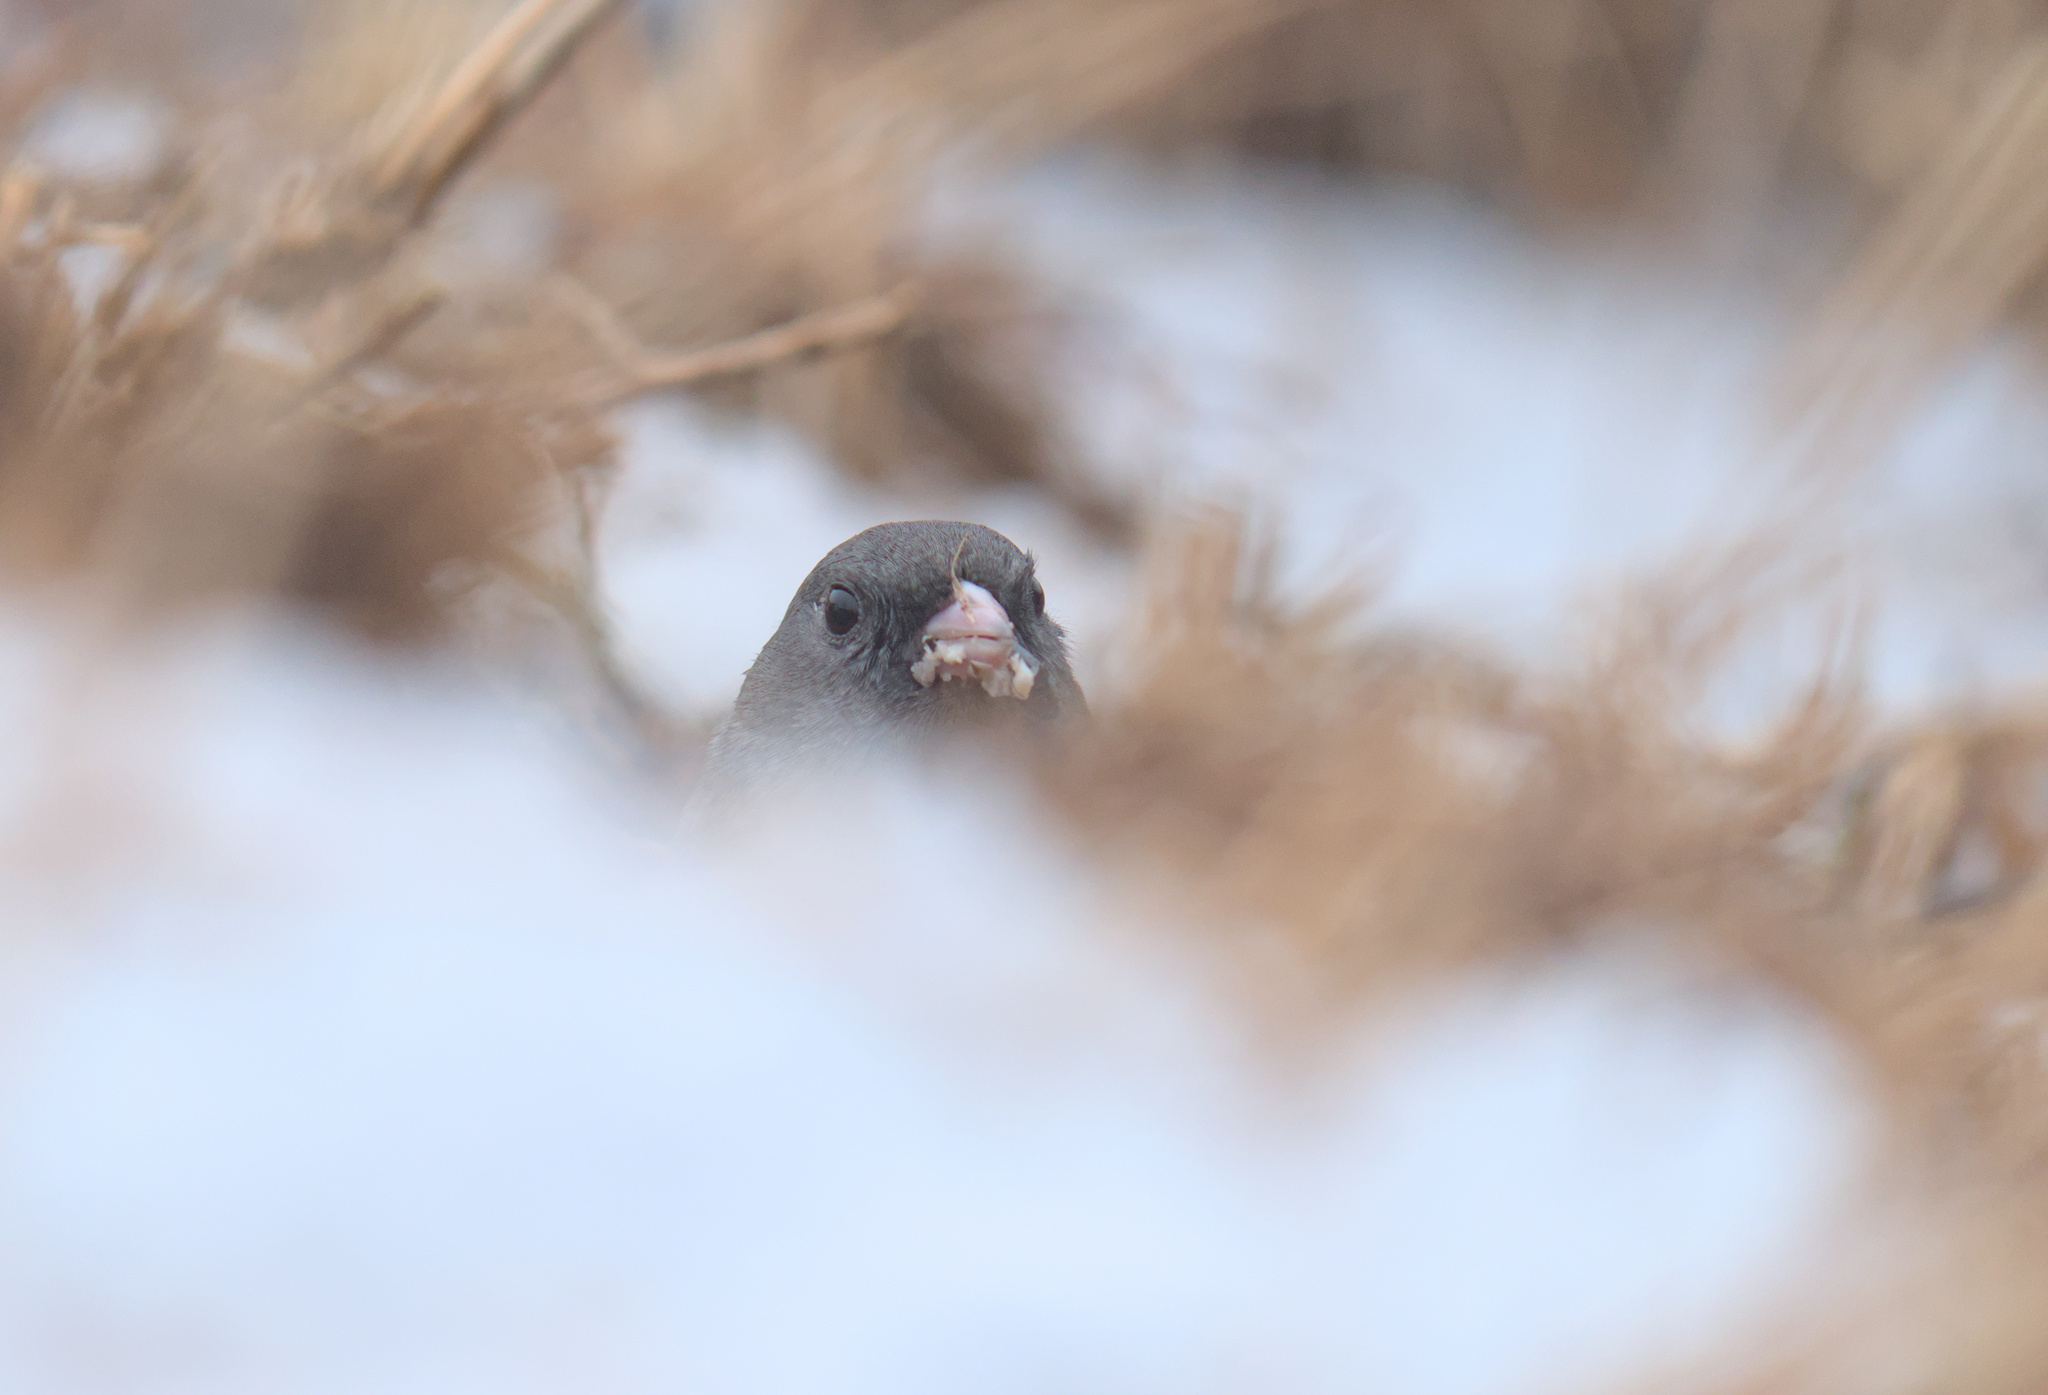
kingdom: Animalia
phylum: Chordata
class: Aves
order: Passeriformes
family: Passerellidae
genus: Junco
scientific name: Junco hyemalis
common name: Dark-eyed junco
